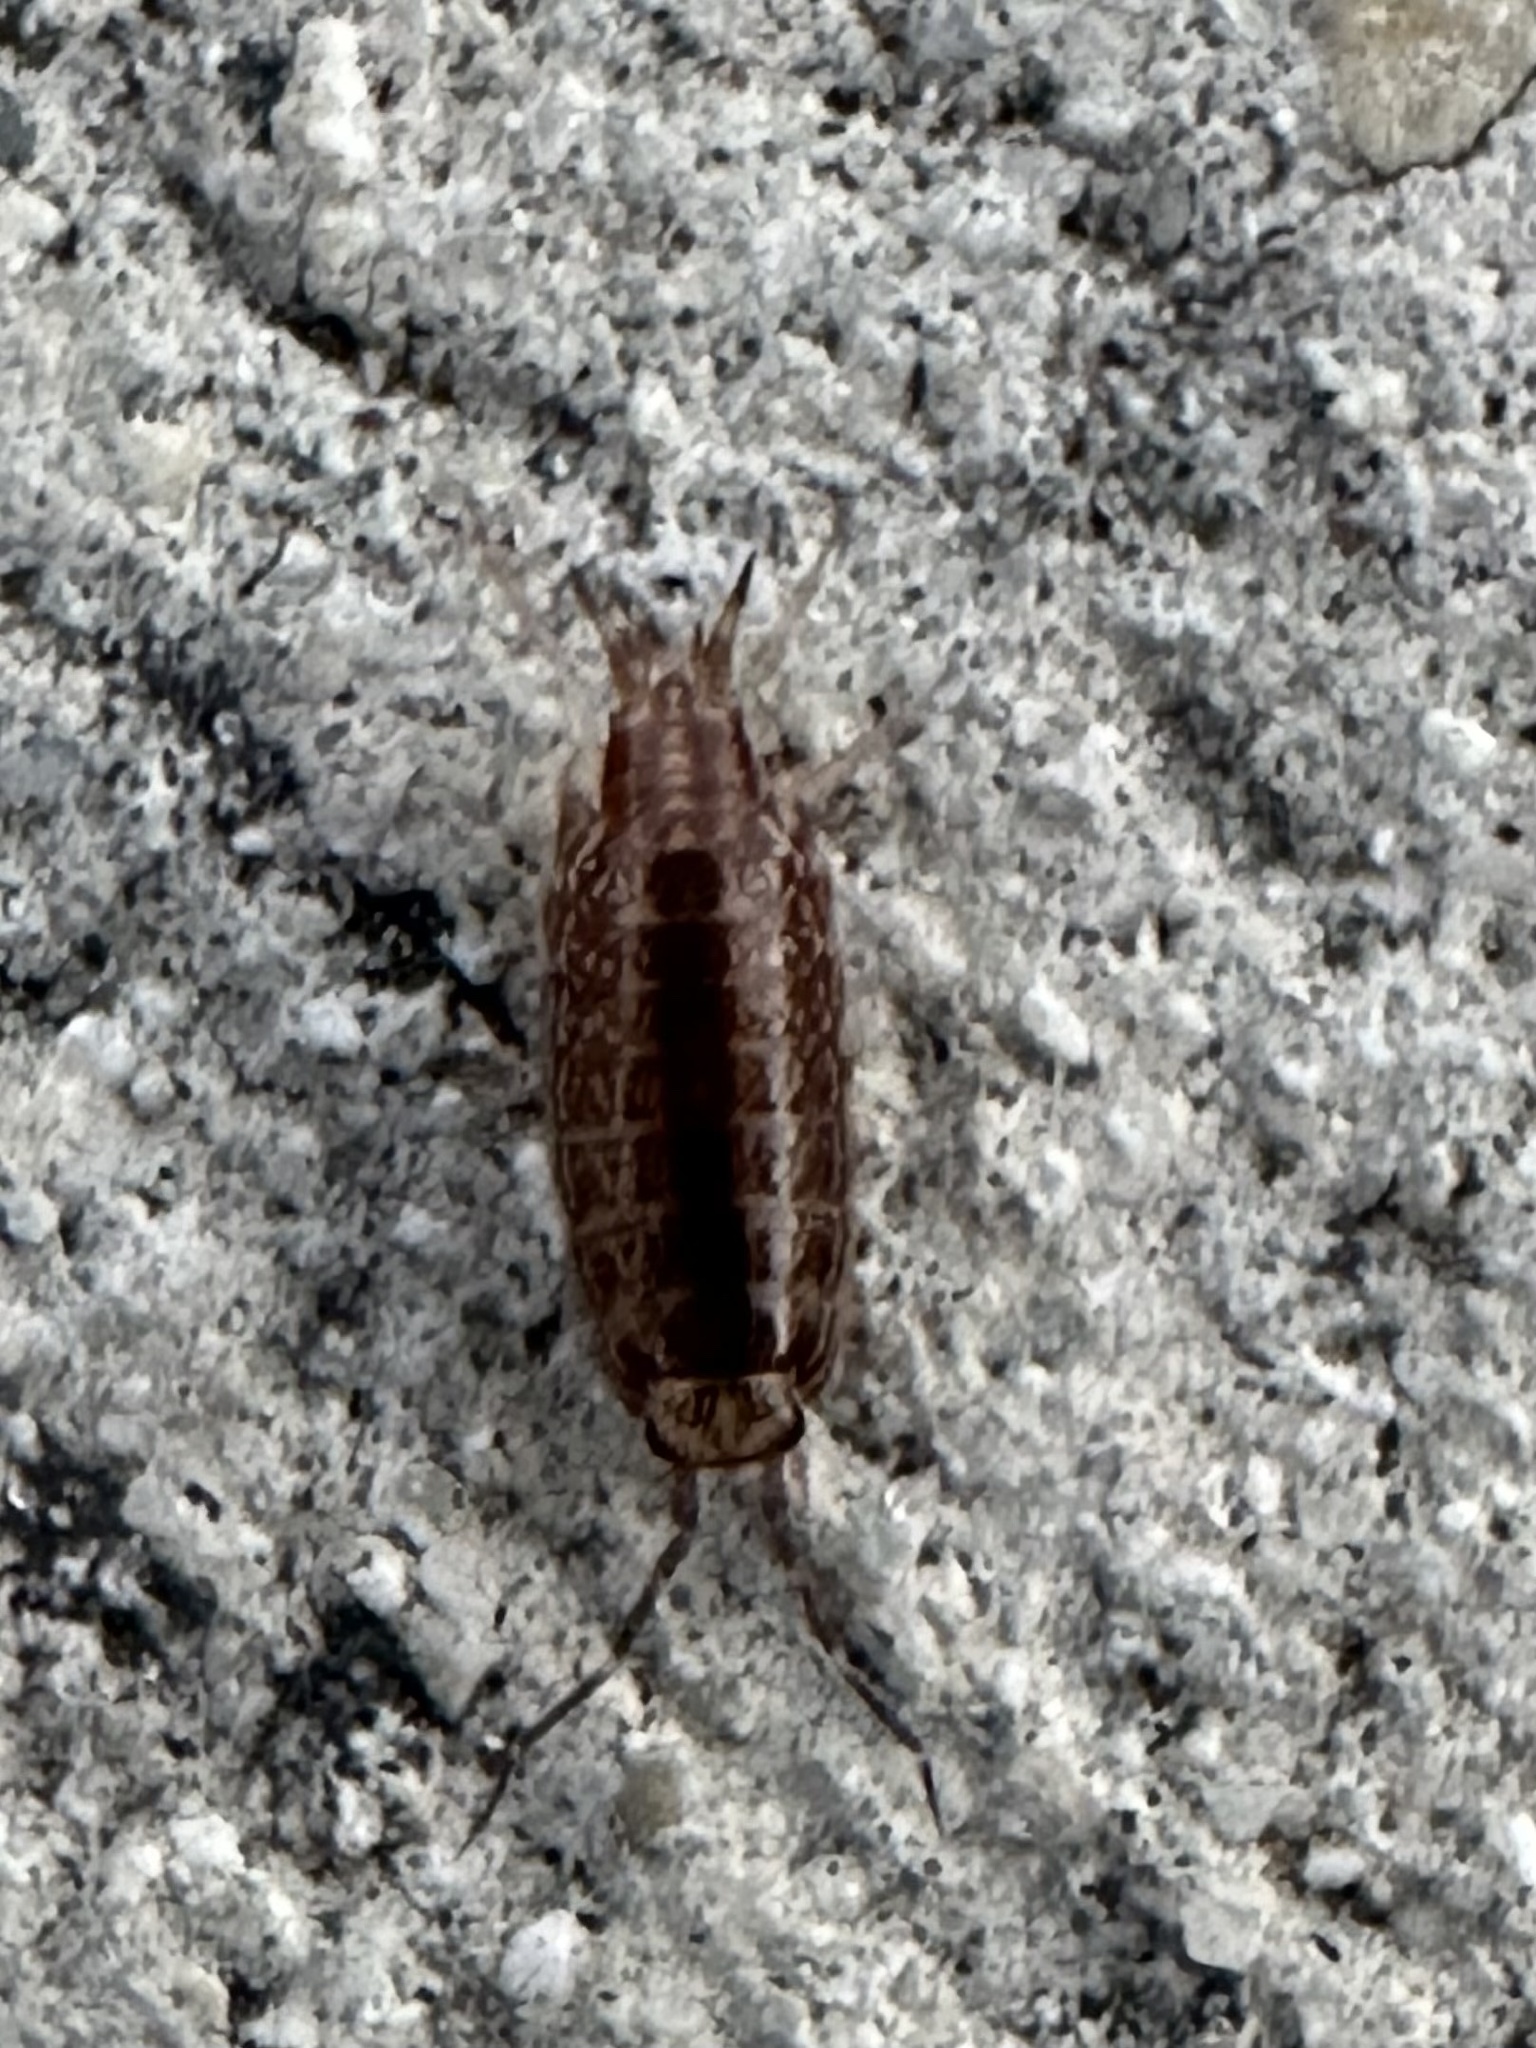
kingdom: Animalia
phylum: Arthropoda
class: Malacostraca
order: Isopoda
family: Philosciidae
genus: Atlantoscia
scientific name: Atlantoscia floridana
